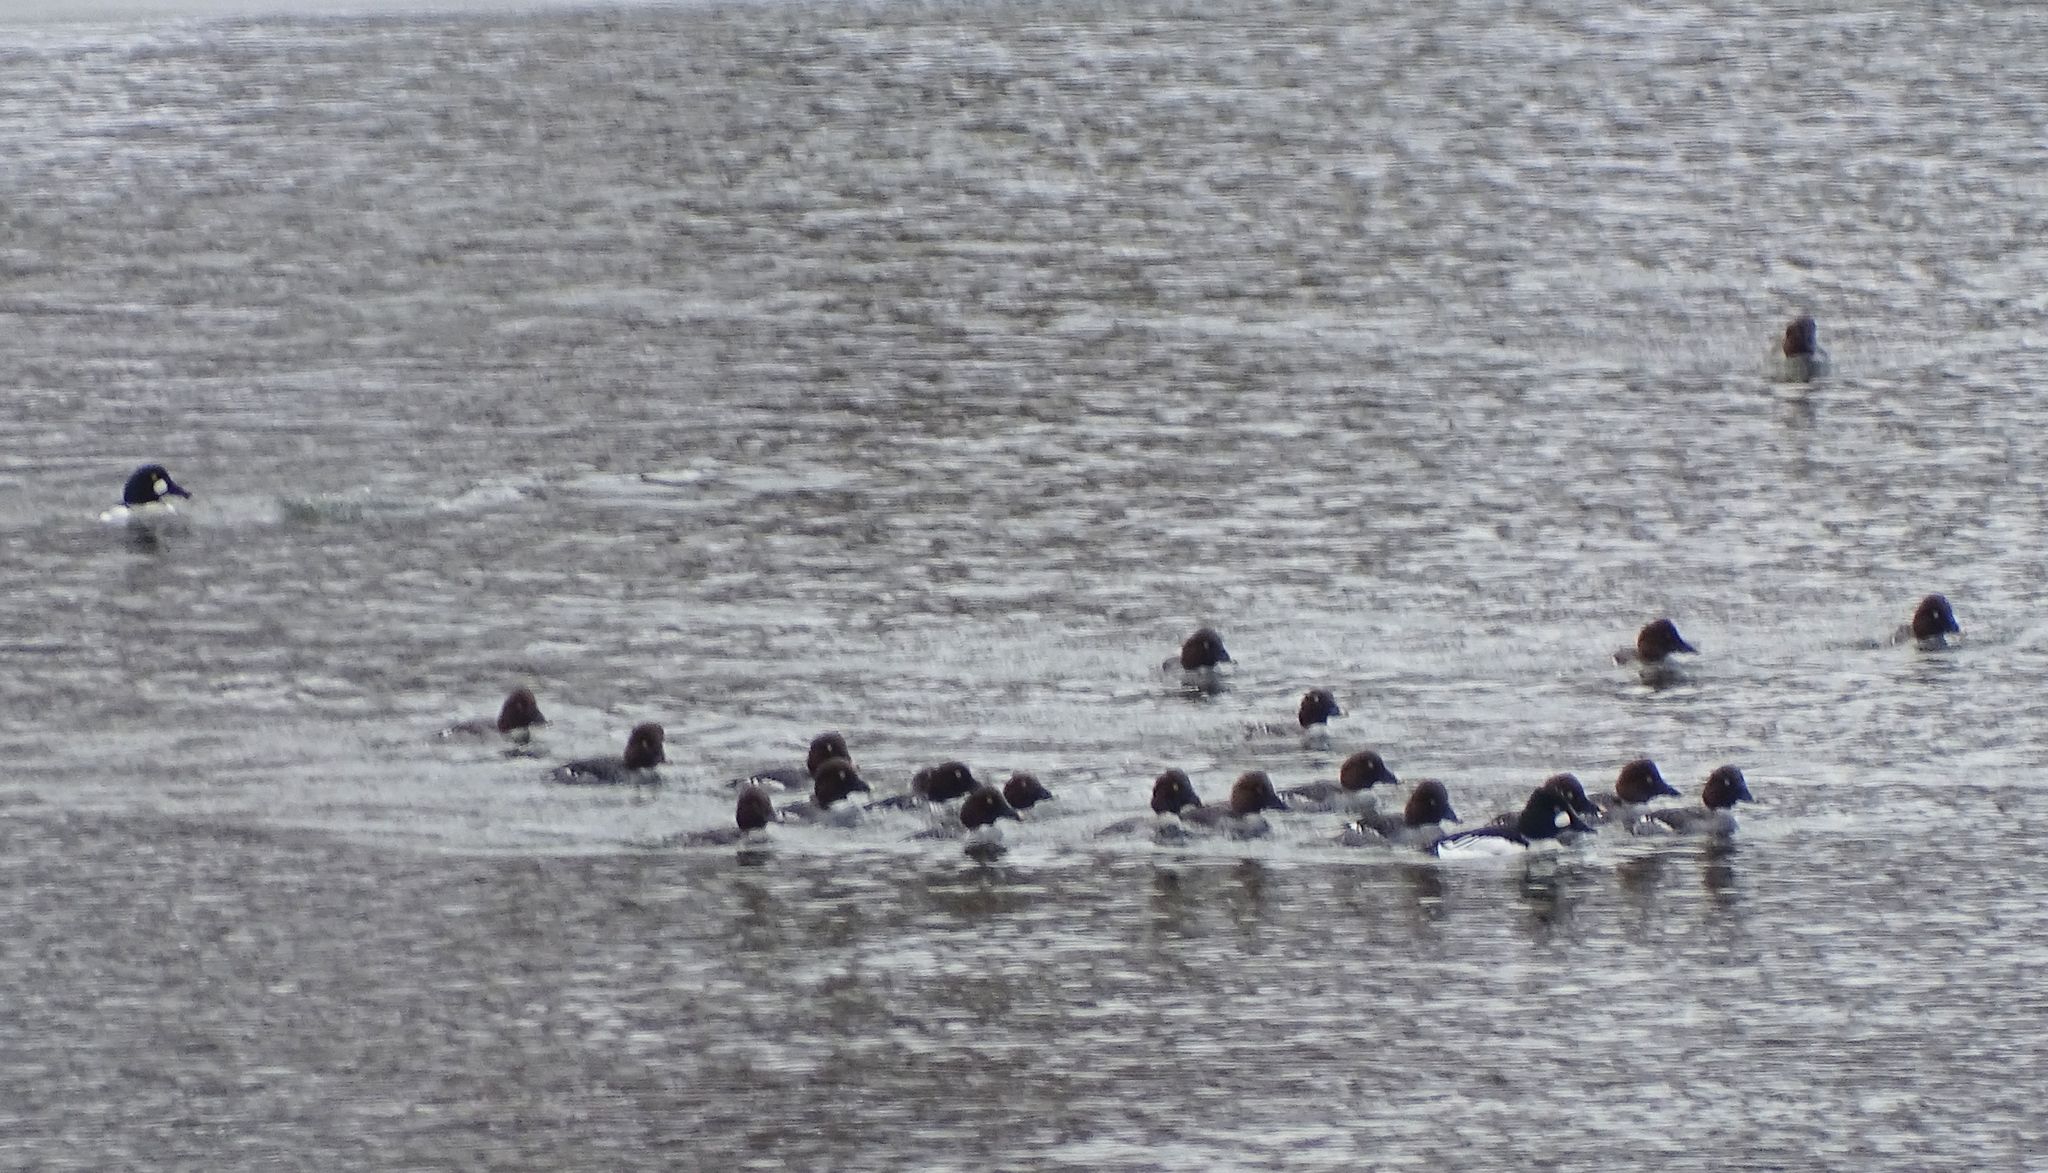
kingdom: Animalia
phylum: Chordata
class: Aves
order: Anseriformes
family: Anatidae
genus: Bucephala
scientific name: Bucephala clangula
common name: Common goldeneye
